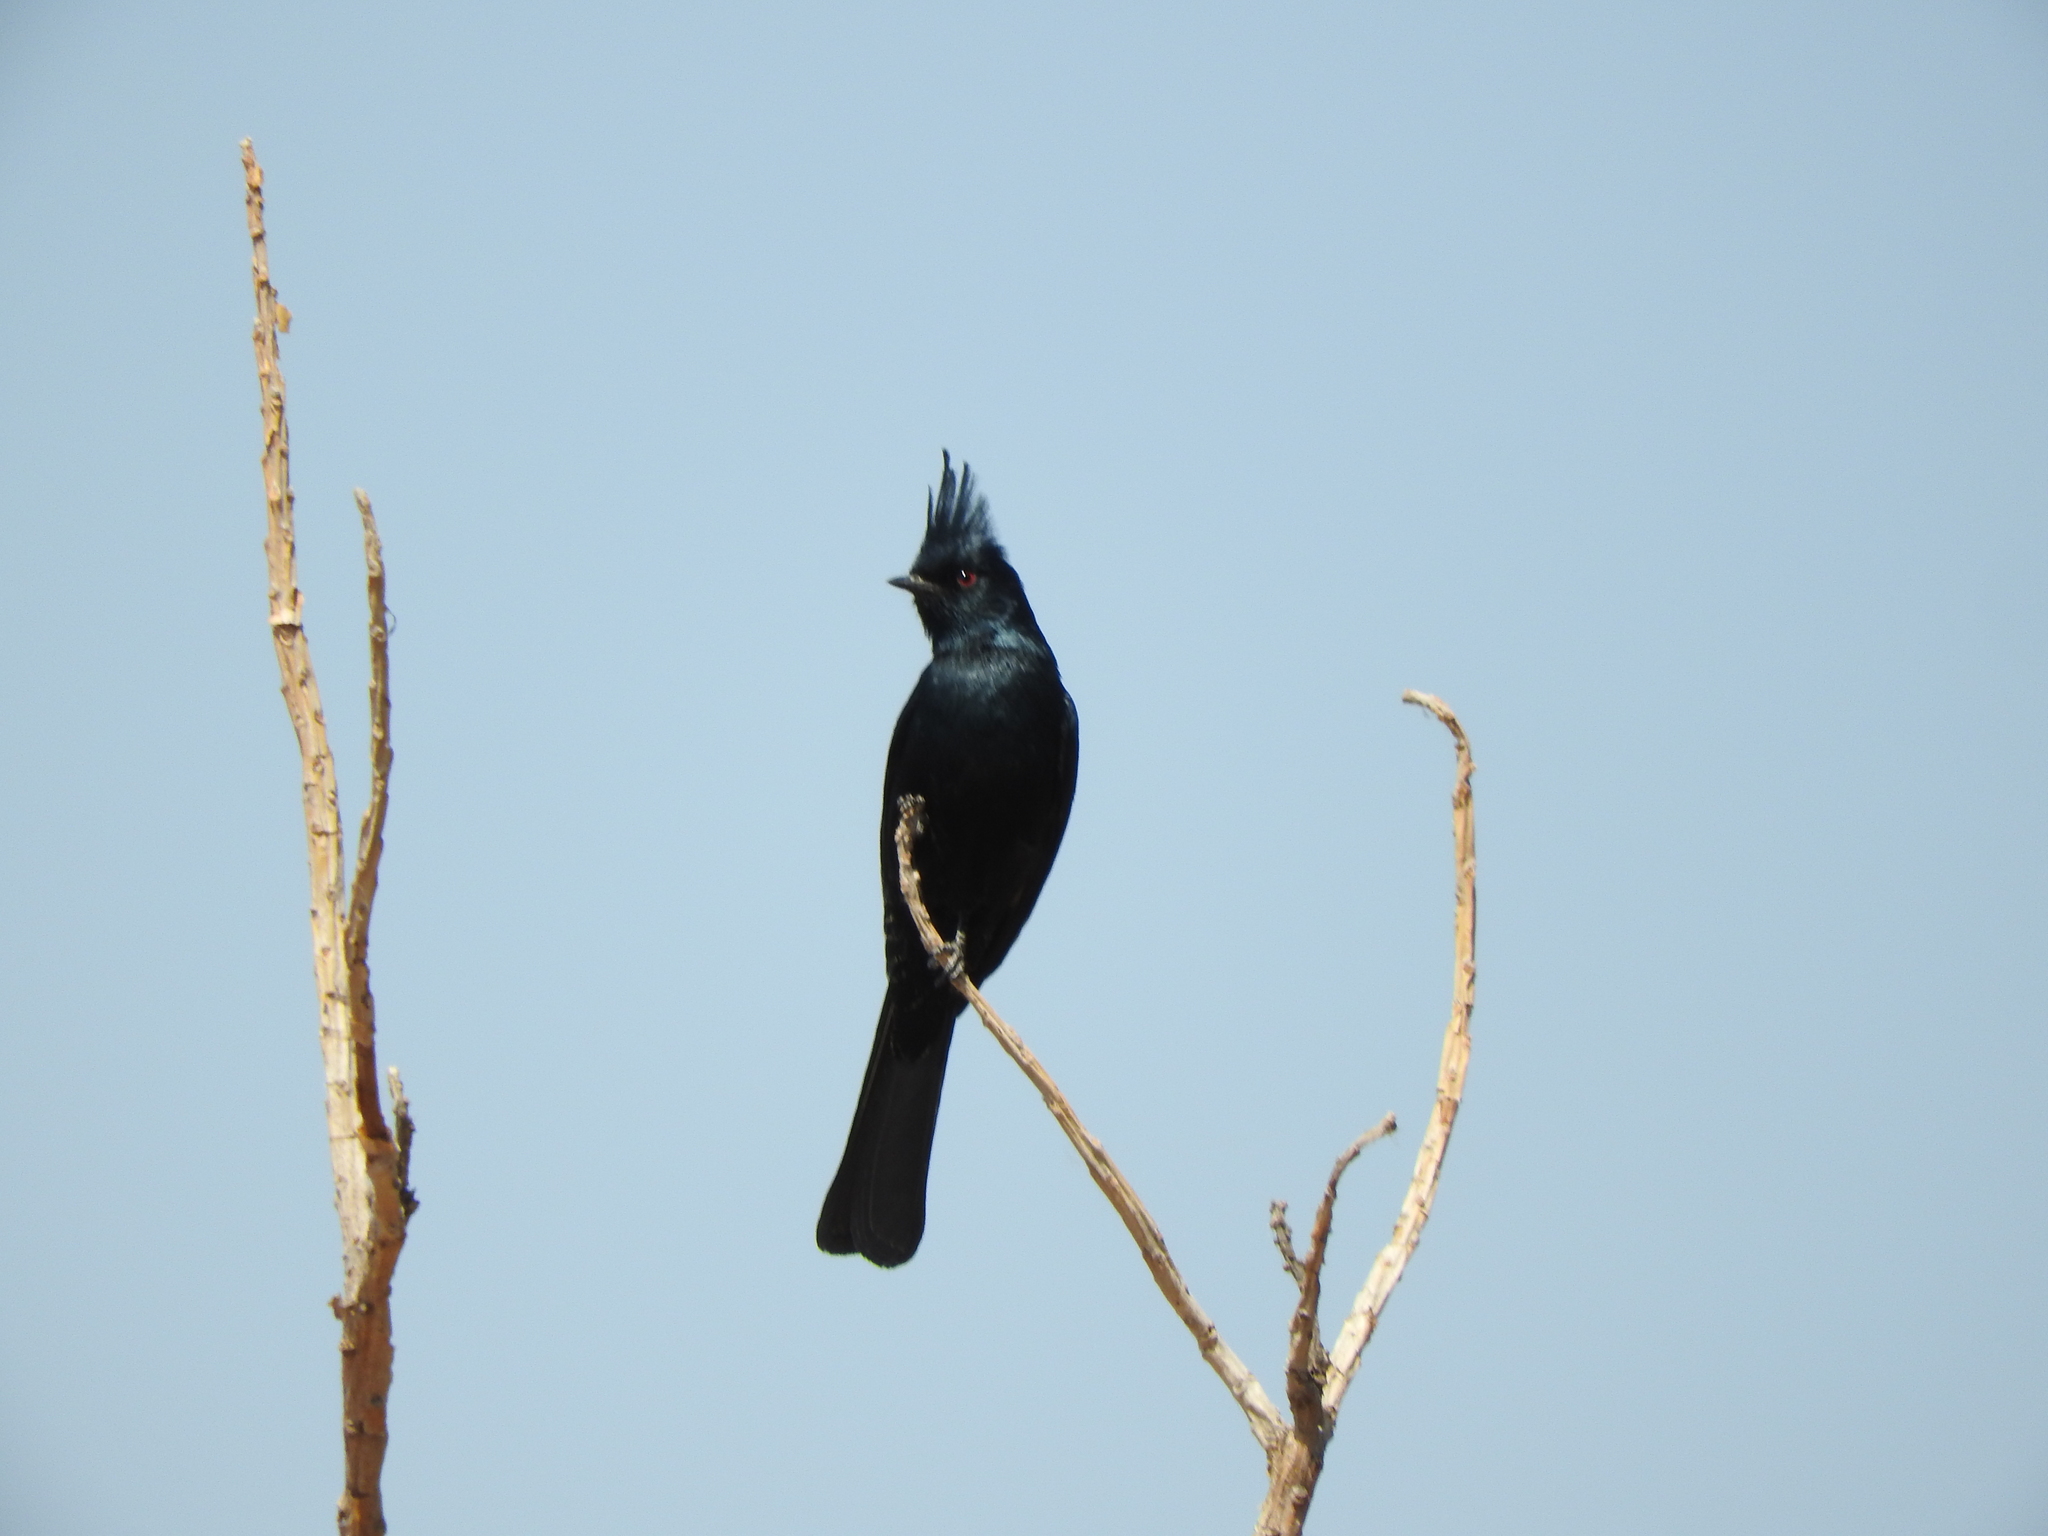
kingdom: Animalia
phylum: Chordata
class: Aves
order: Passeriformes
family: Ptilogonatidae
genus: Phainopepla
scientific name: Phainopepla nitens
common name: Phainopepla
